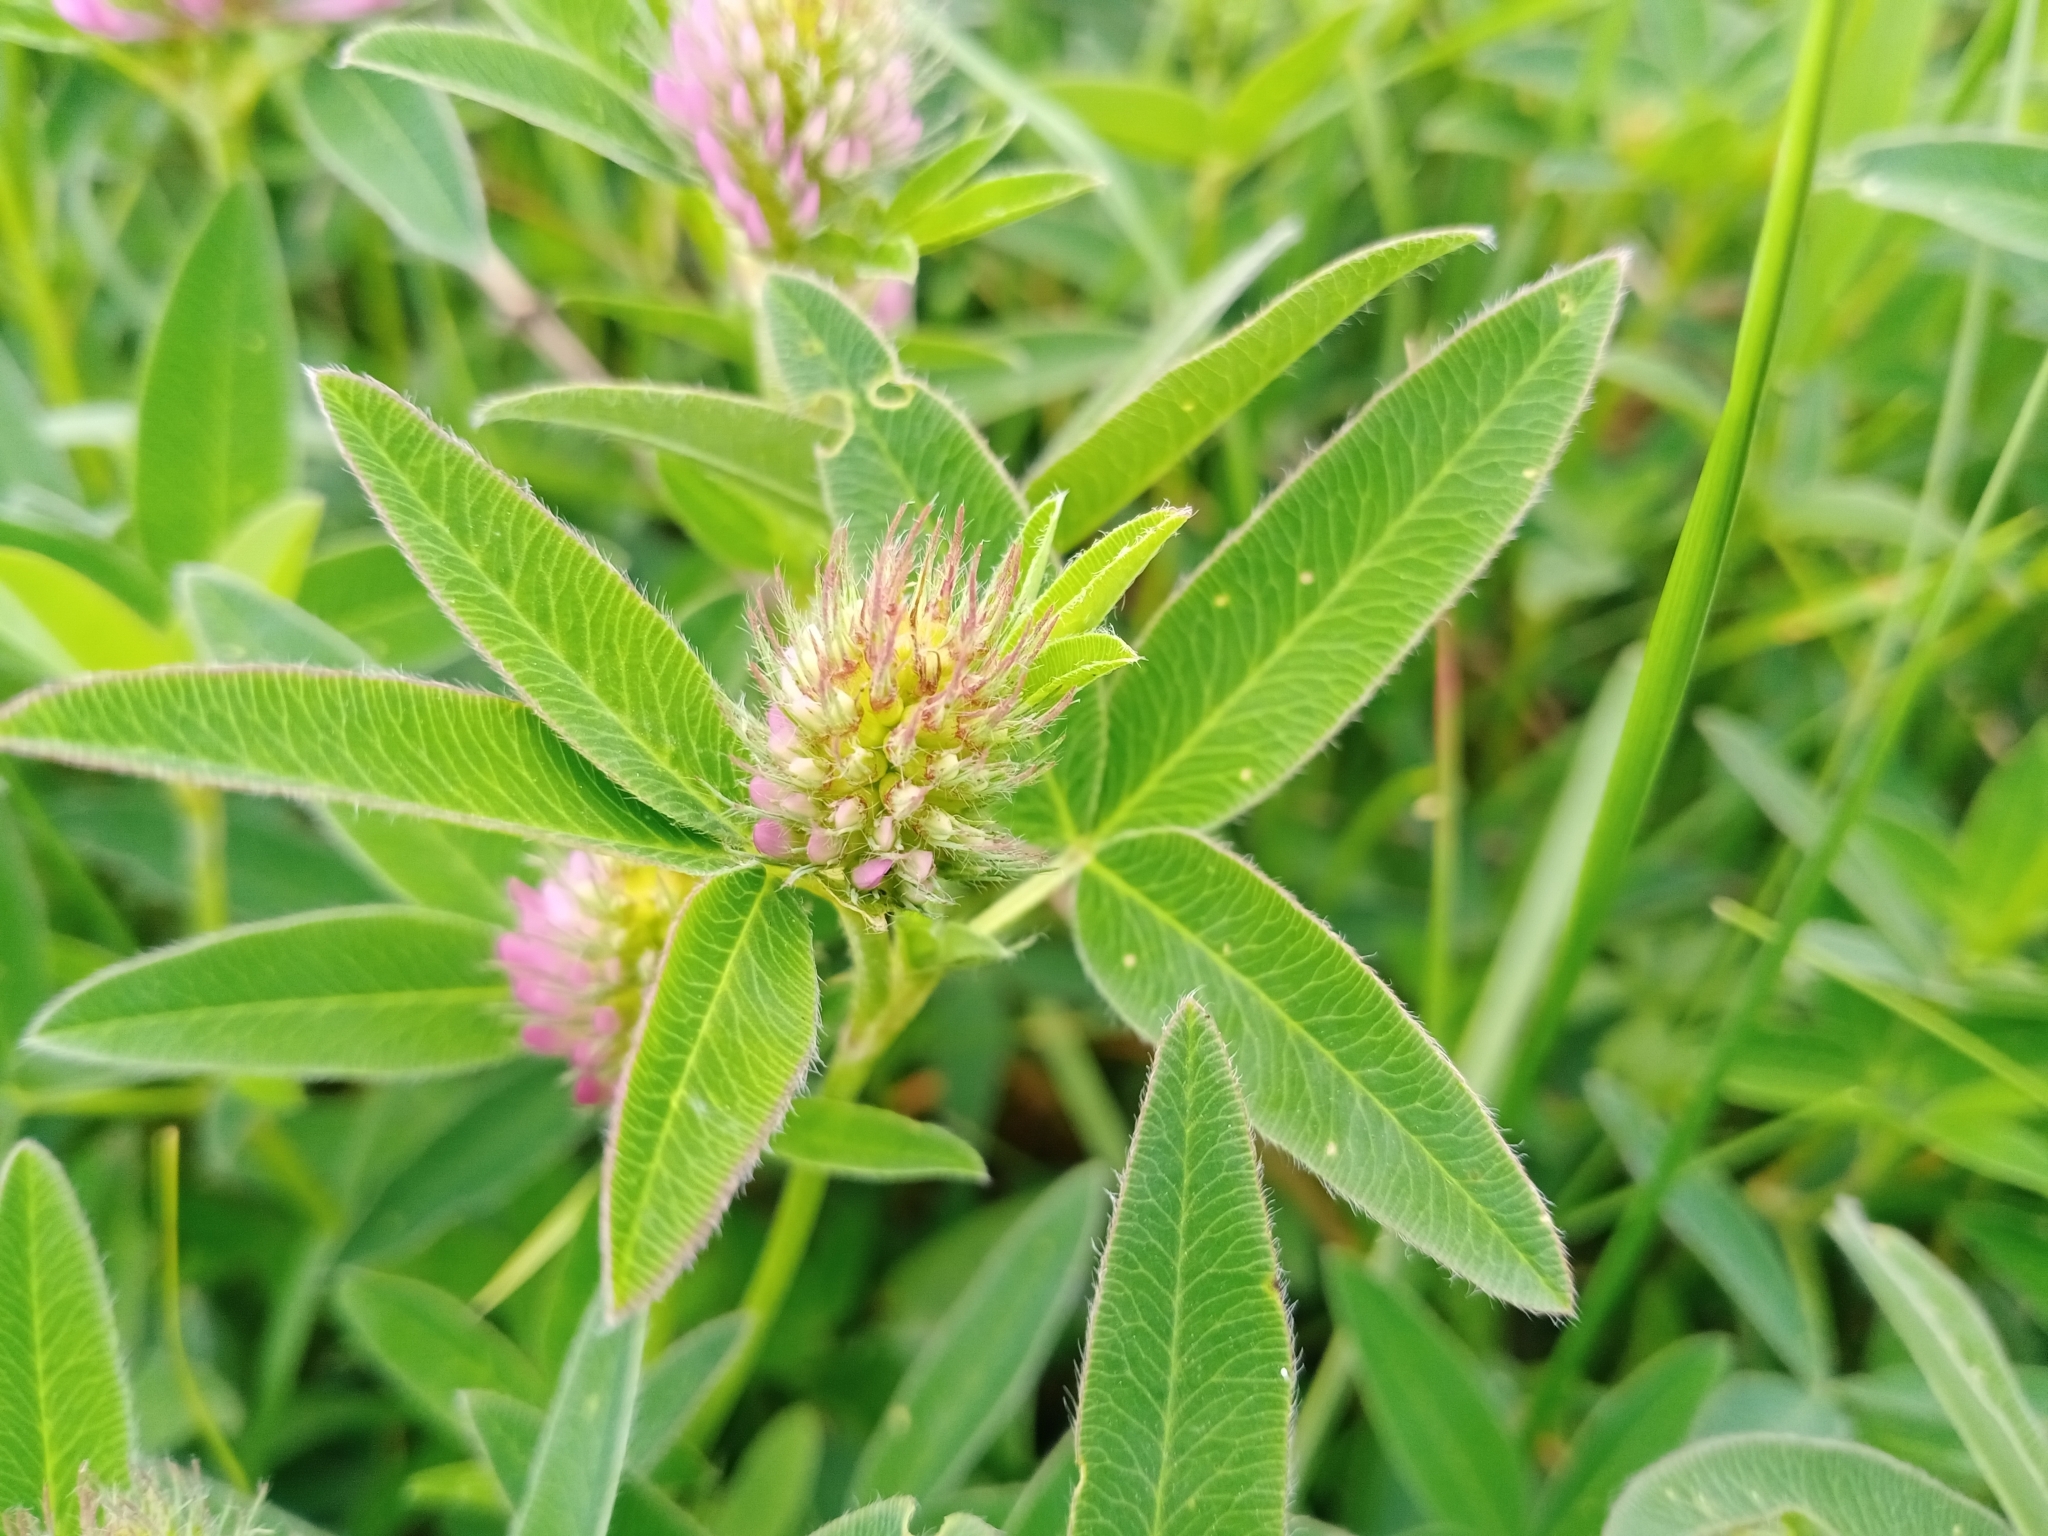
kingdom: Plantae
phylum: Tracheophyta
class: Magnoliopsida
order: Fabales
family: Fabaceae
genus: Trifolium
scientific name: Trifolium medium
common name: Zigzag clover
